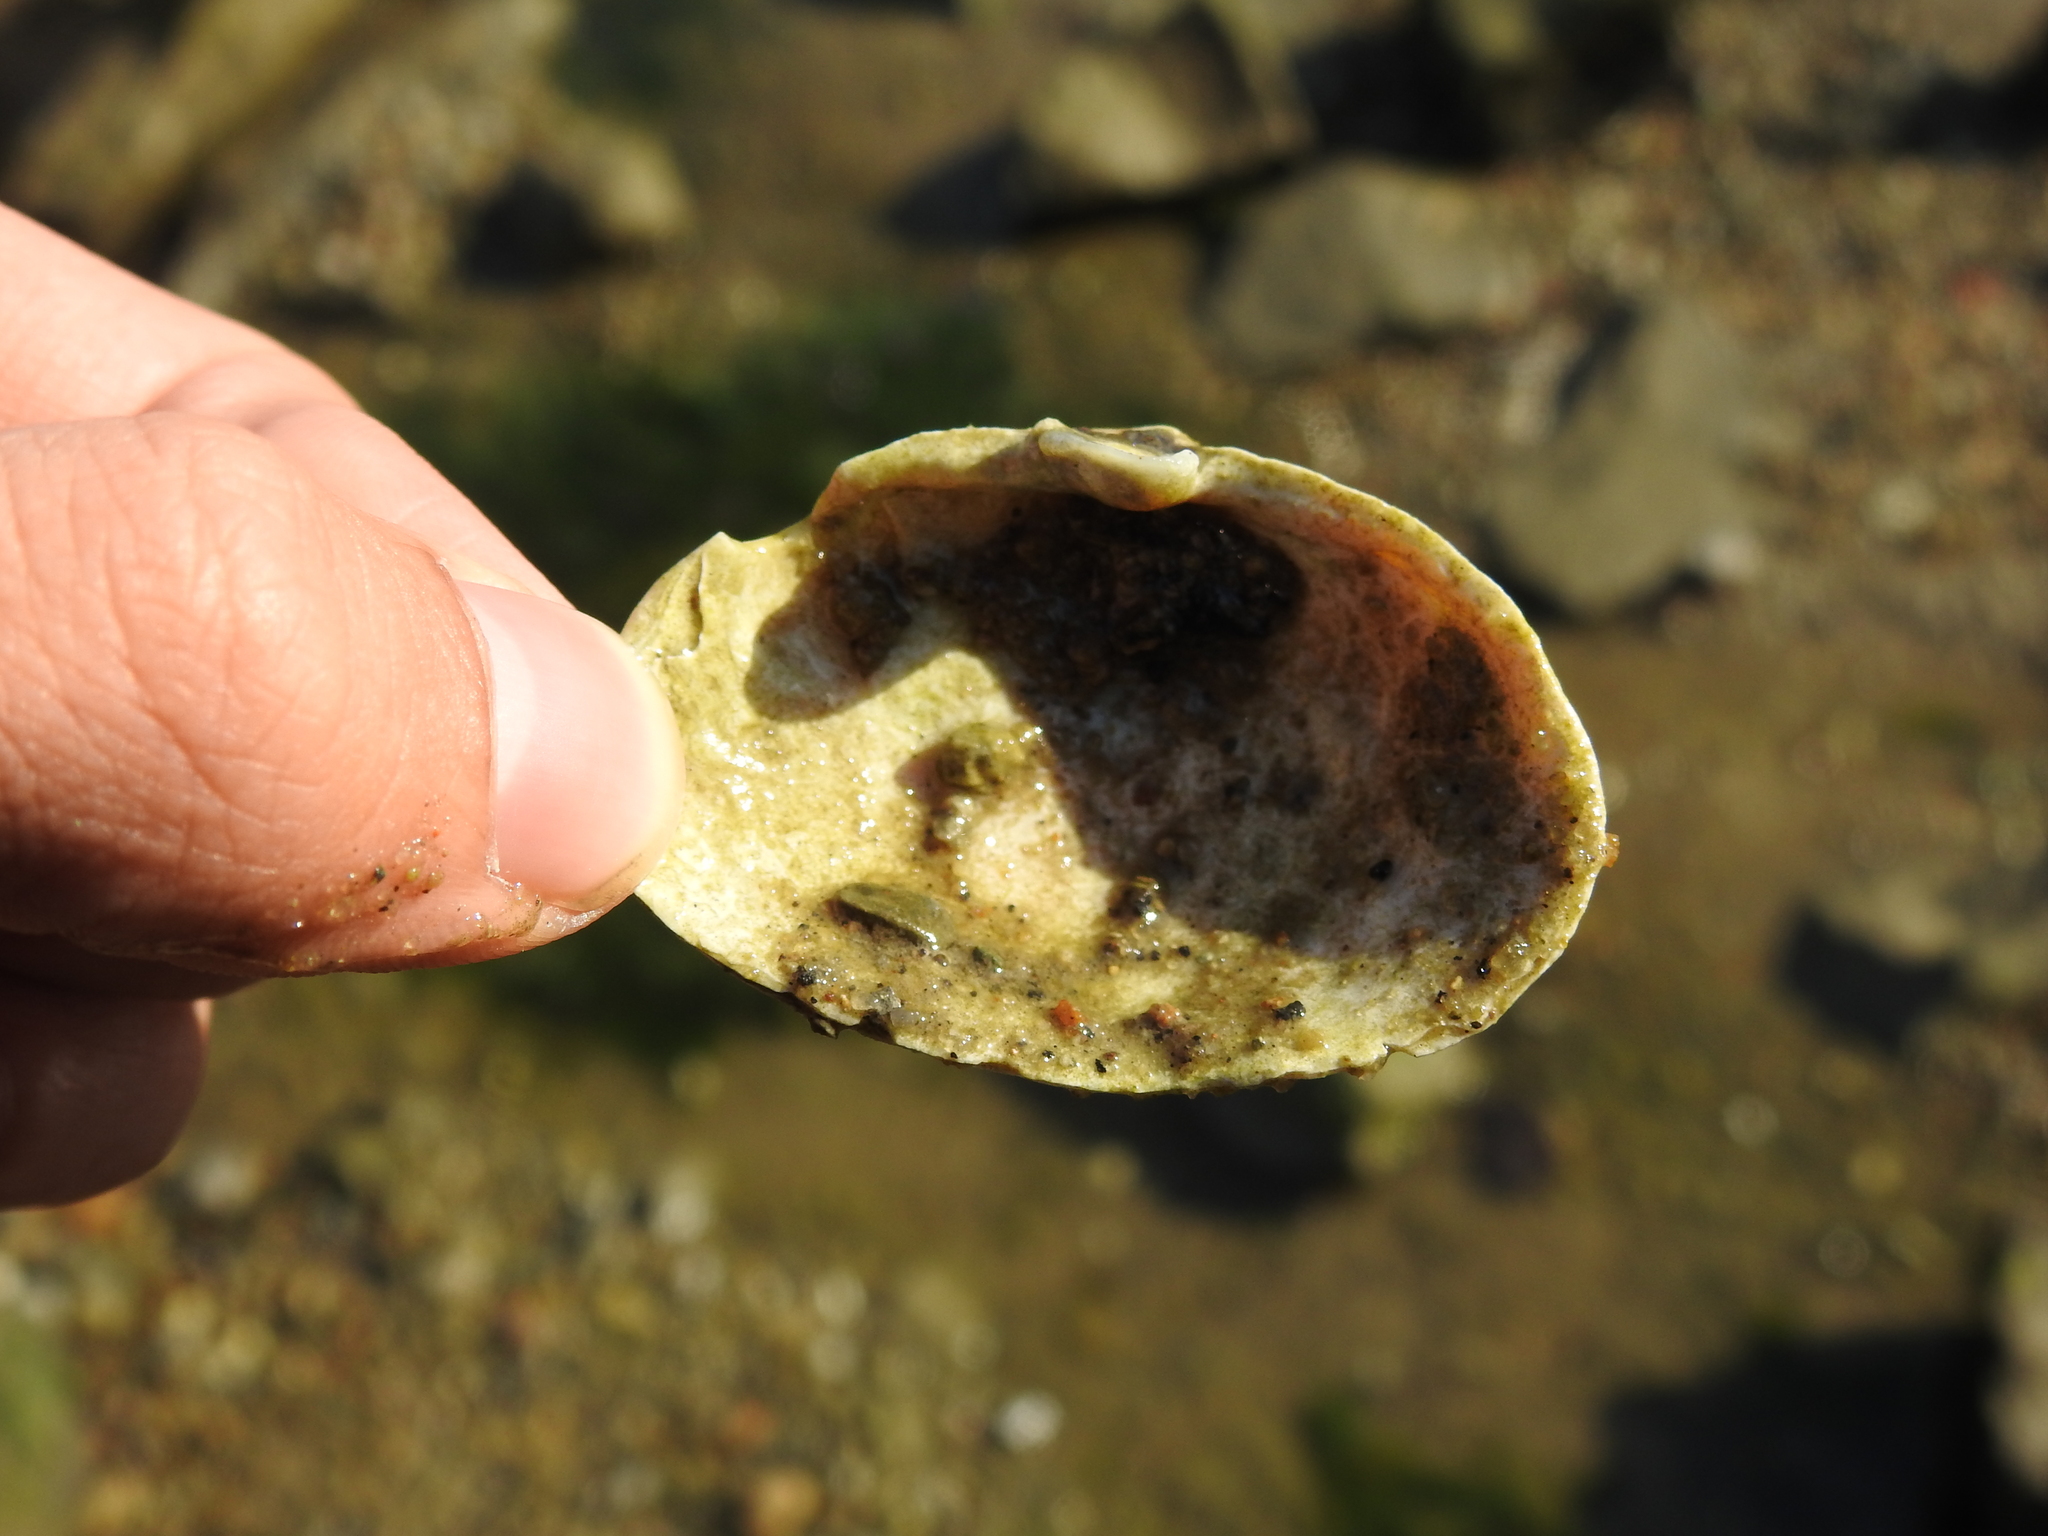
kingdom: Animalia
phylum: Mollusca
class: Bivalvia
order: Myida
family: Myidae
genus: Mya
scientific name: Mya arenaria
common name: Soft-shelled clam
